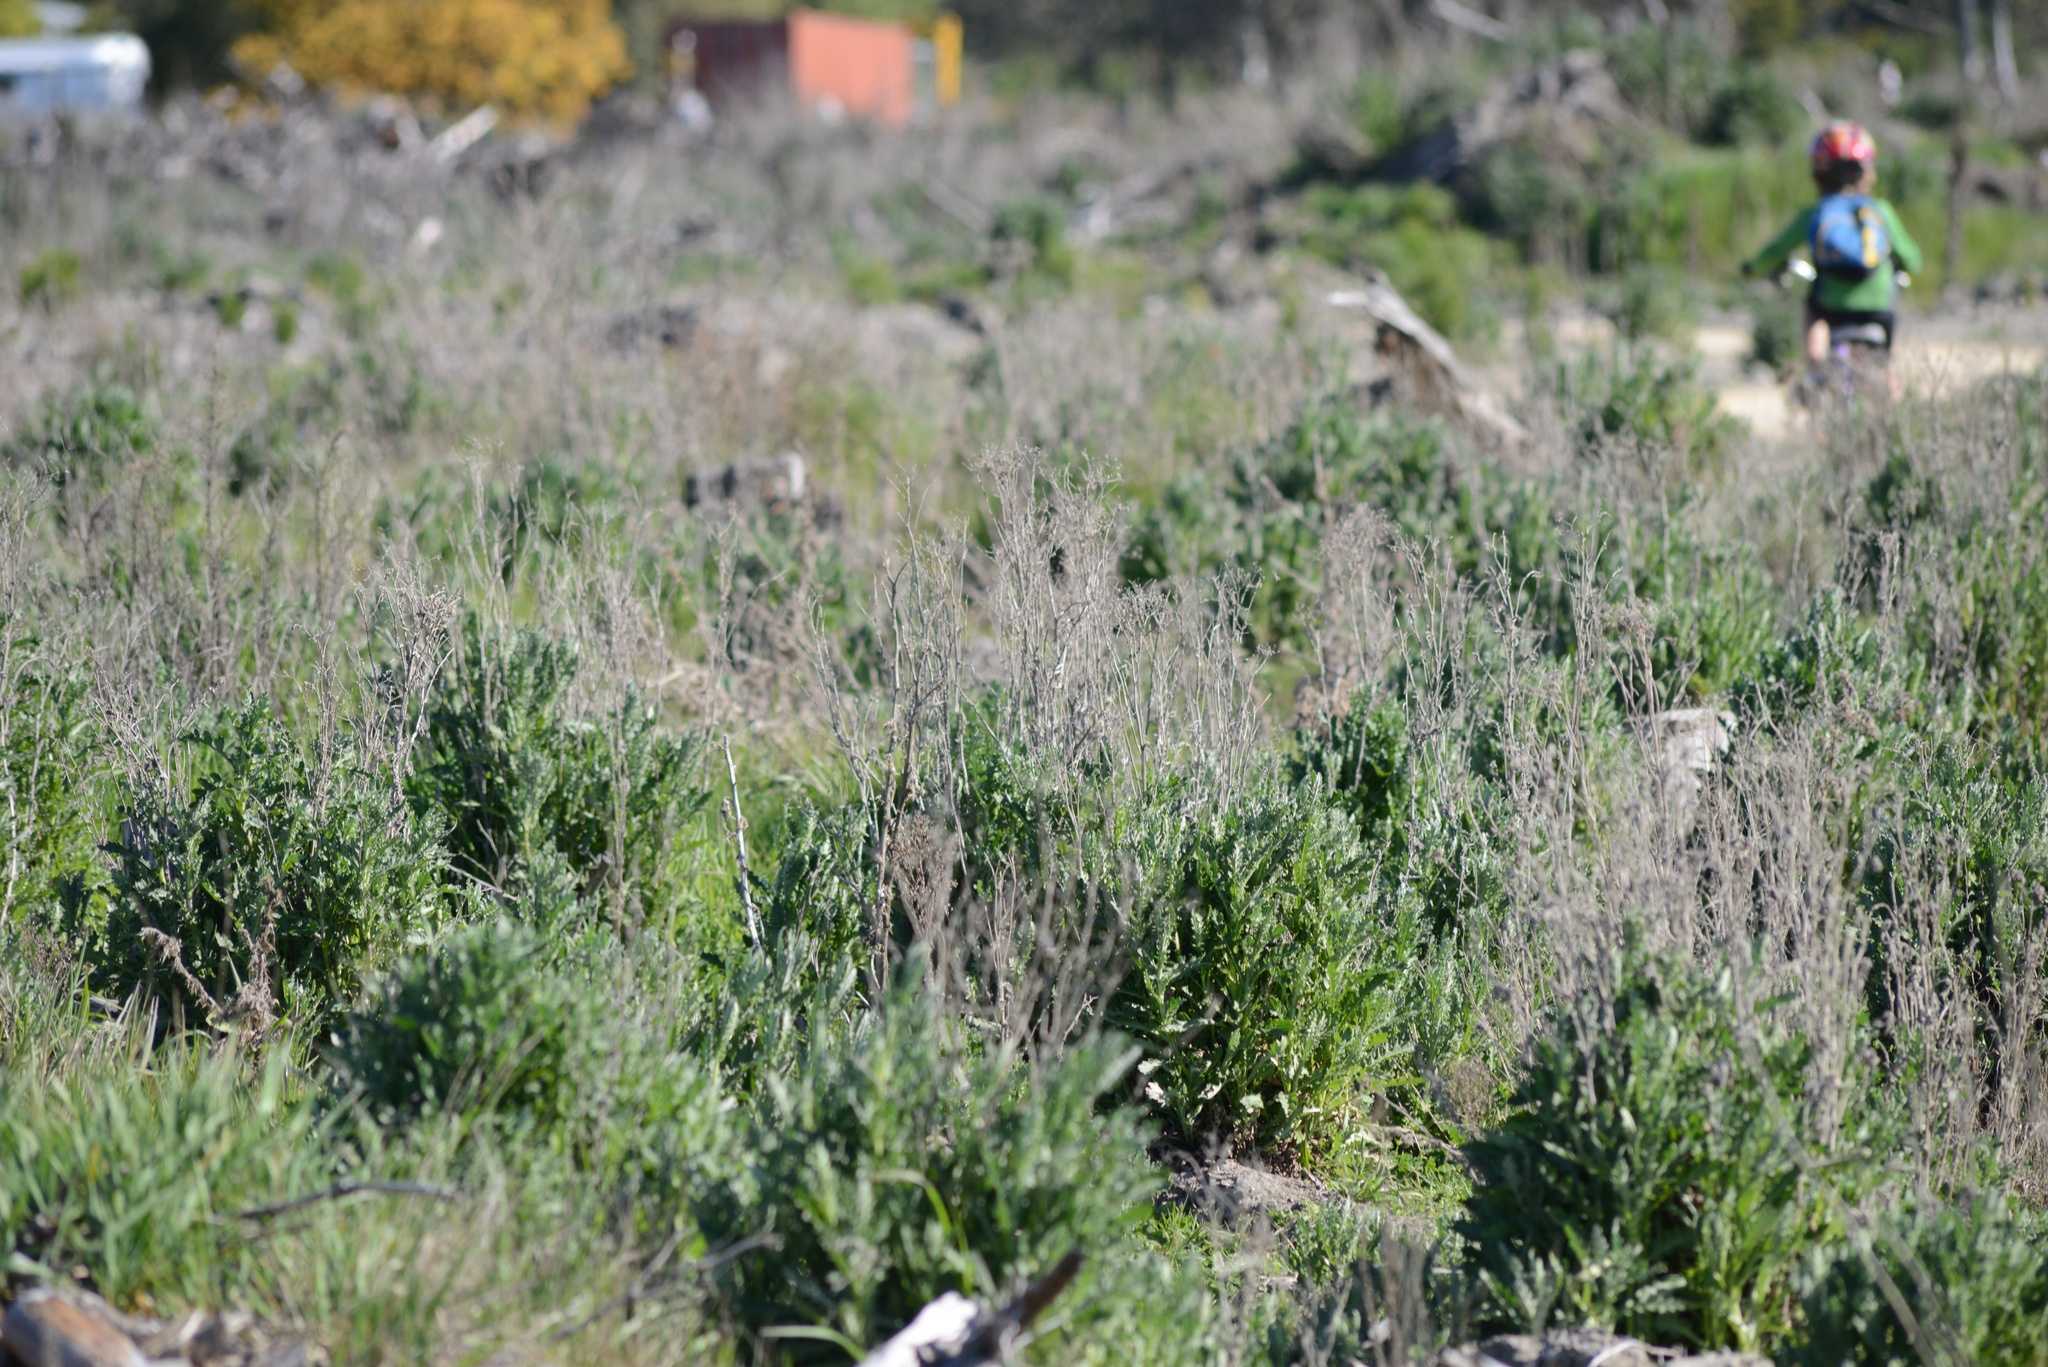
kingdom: Plantae
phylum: Tracheophyta
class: Magnoliopsida
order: Asterales
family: Asteraceae
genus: Senecio
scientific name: Senecio glomeratus
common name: Cutleaf burnweed
